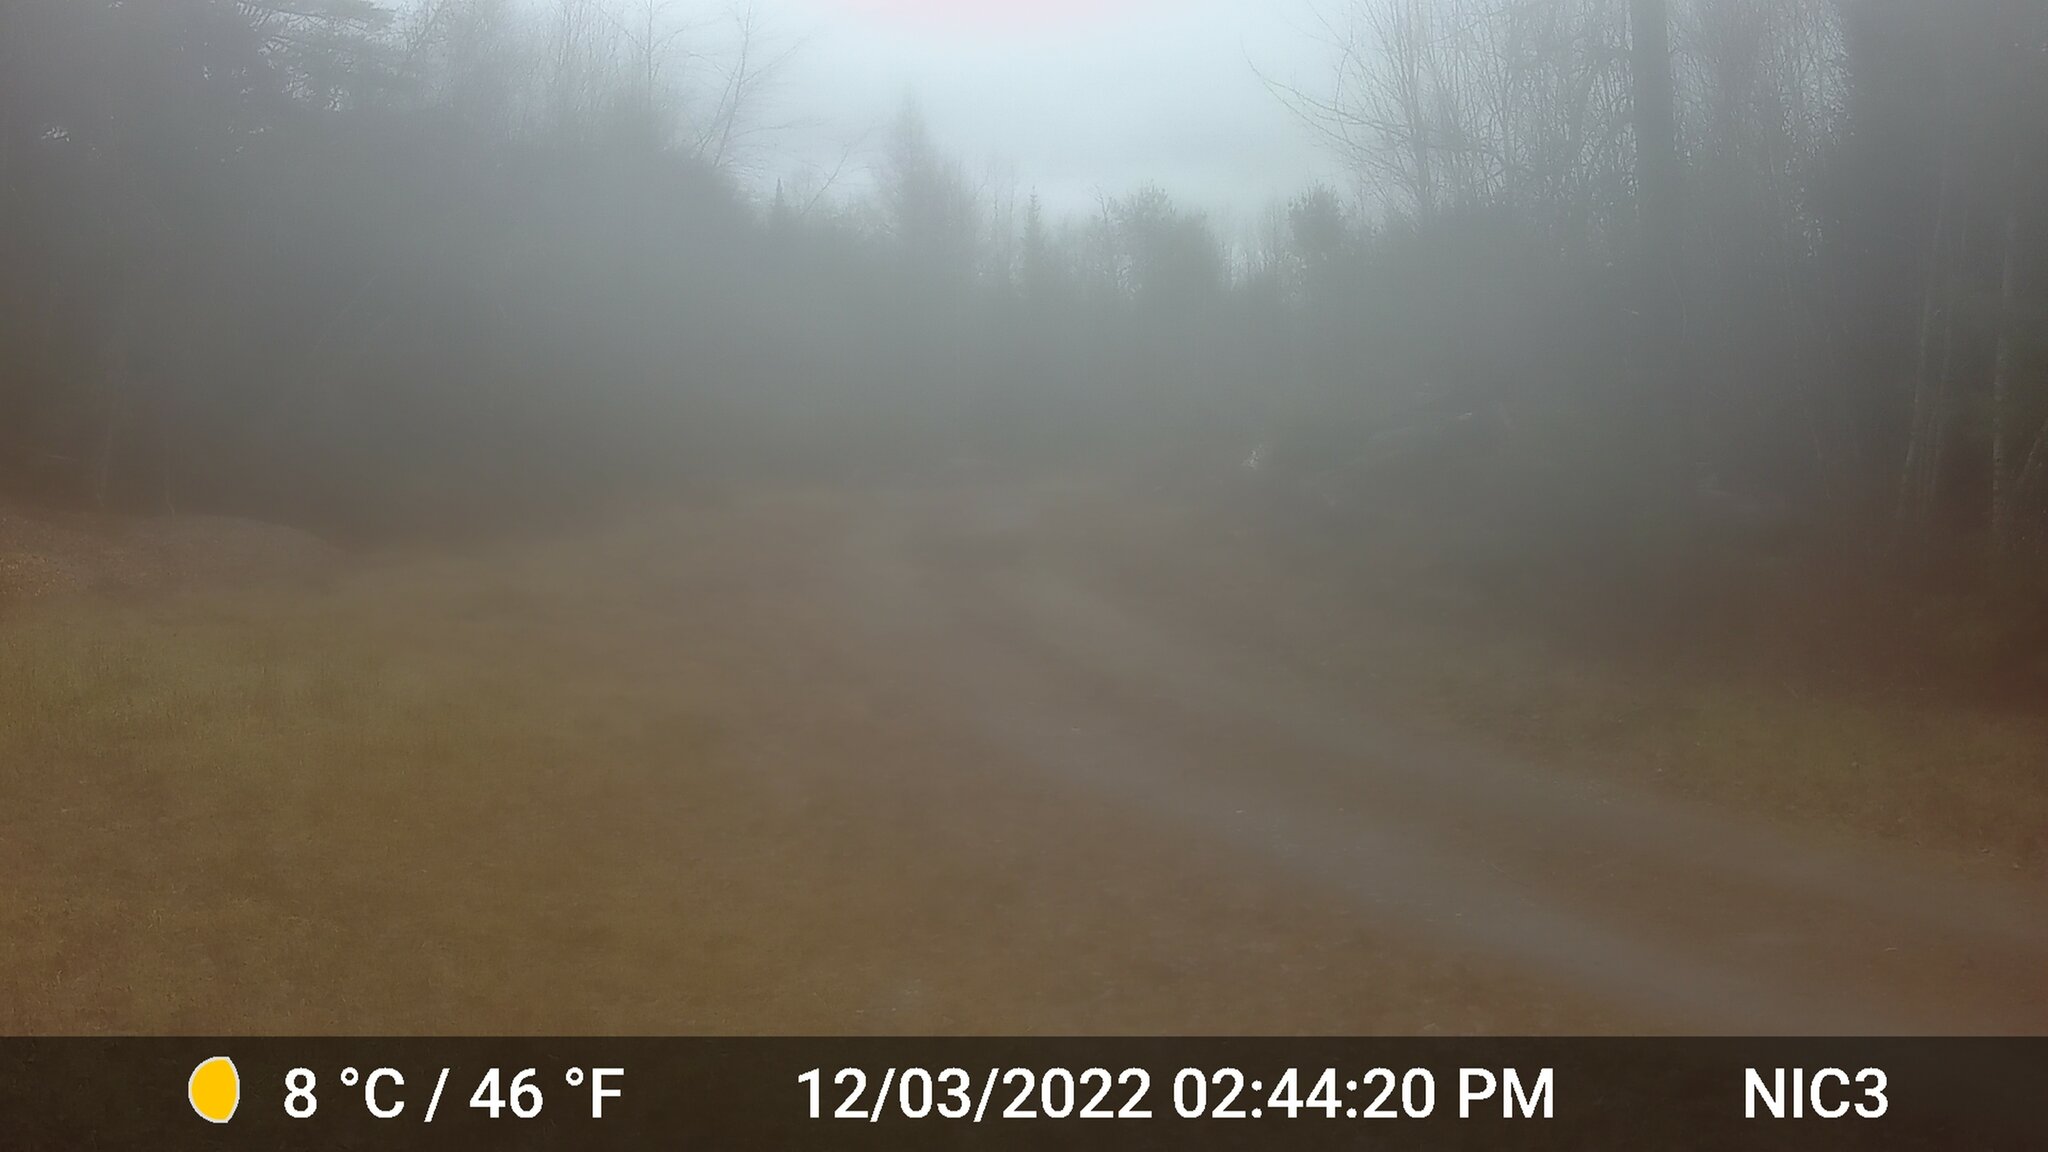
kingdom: Animalia
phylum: Chordata
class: Mammalia
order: Artiodactyla
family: Cervidae
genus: Odocoileus
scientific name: Odocoileus virginianus
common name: White-tailed deer
